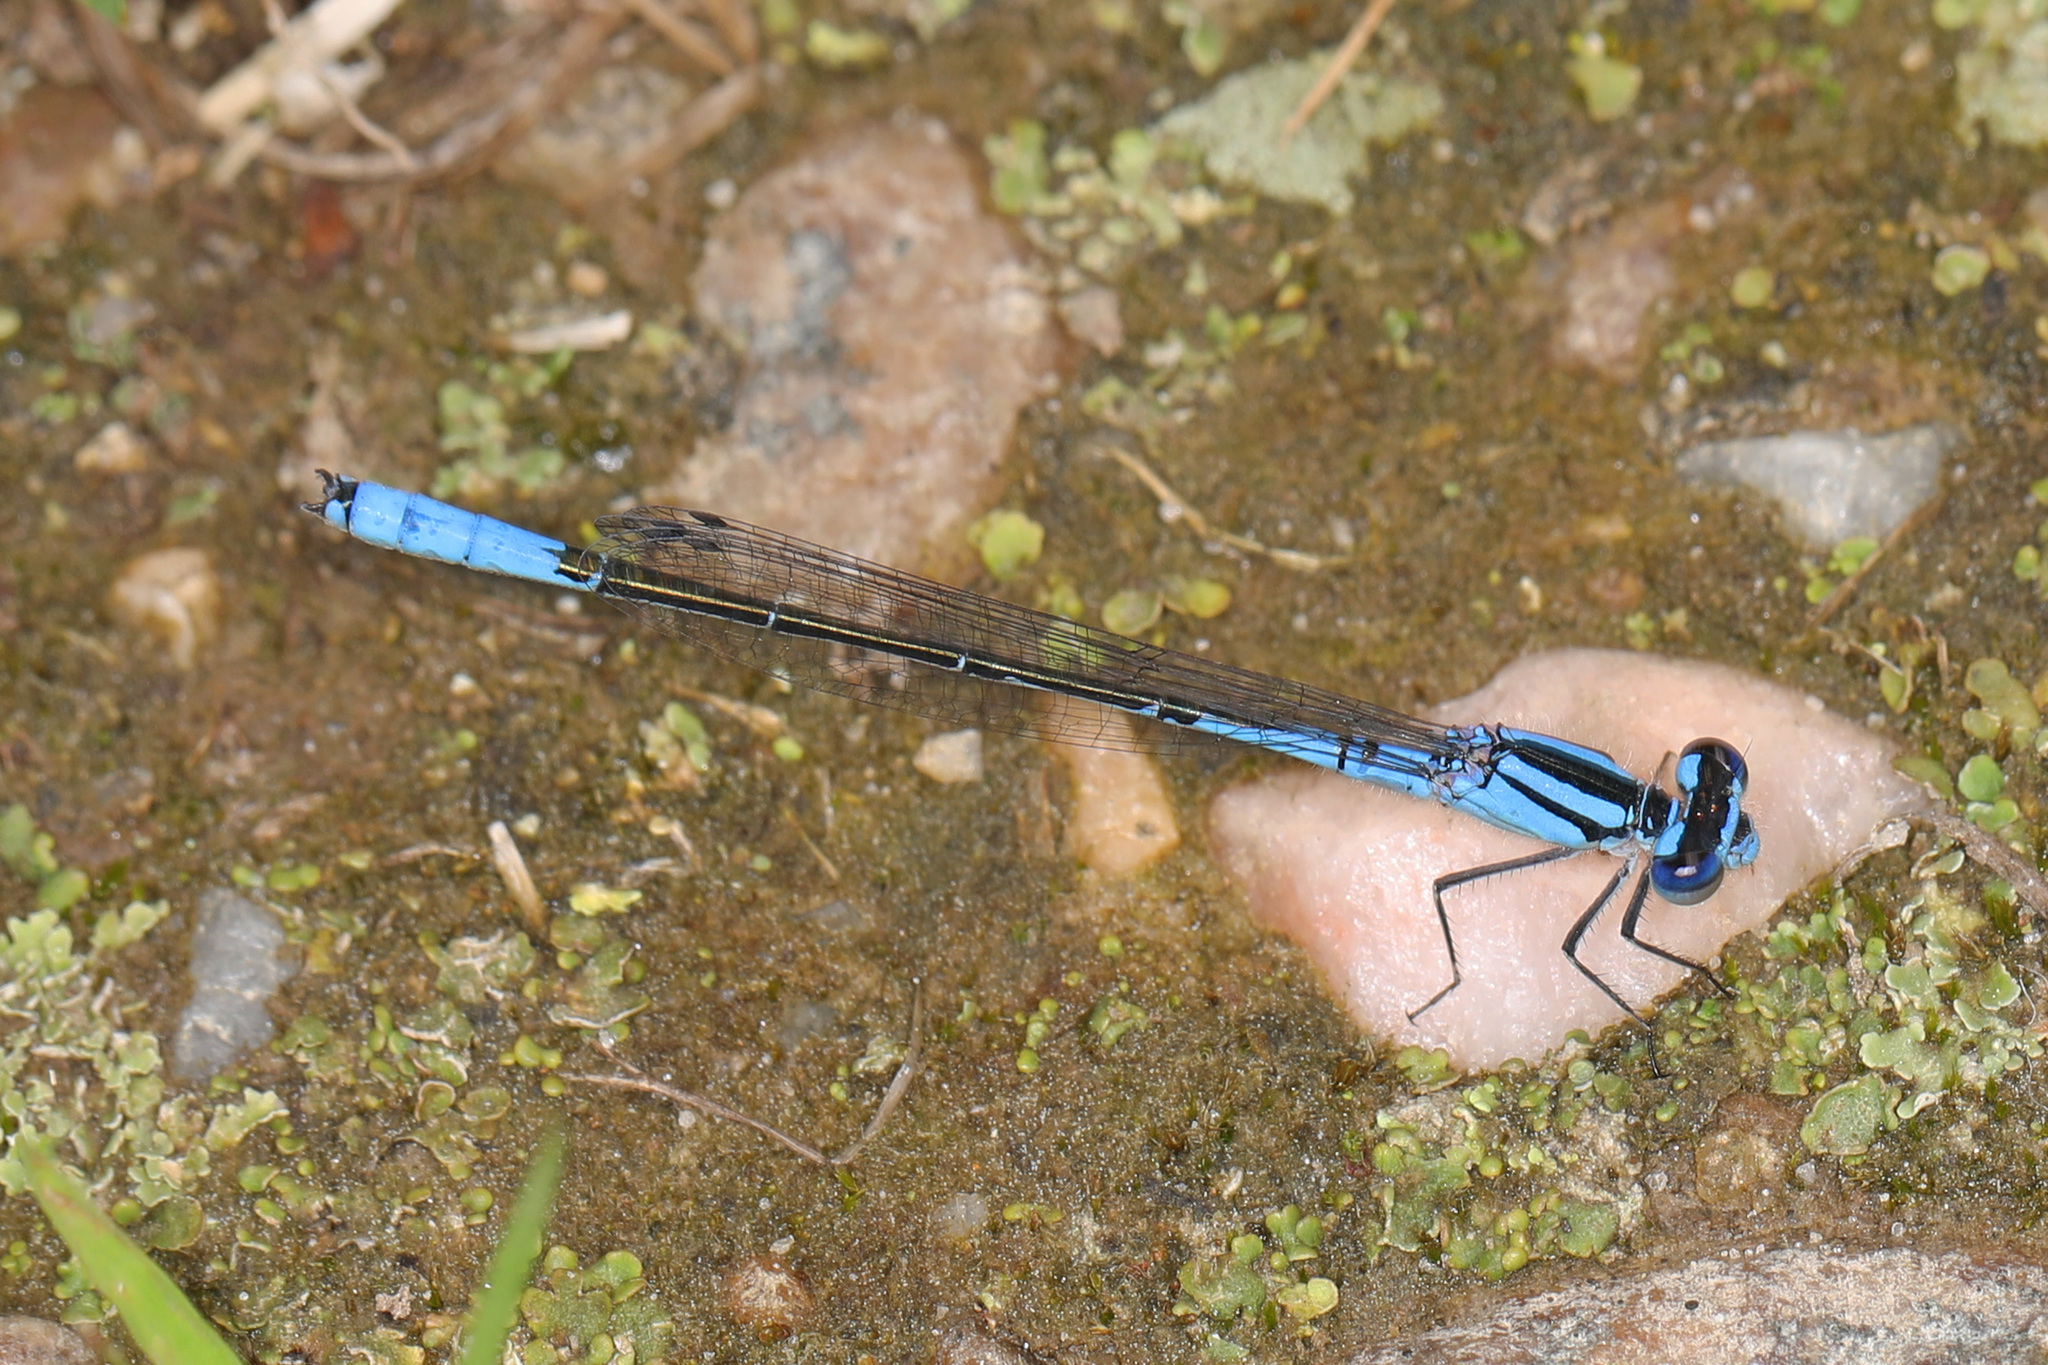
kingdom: Animalia
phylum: Arthropoda
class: Insecta
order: Odonata
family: Coenagrionidae
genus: Enallagma
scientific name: Enallagma aspersum
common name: Azure bluet
